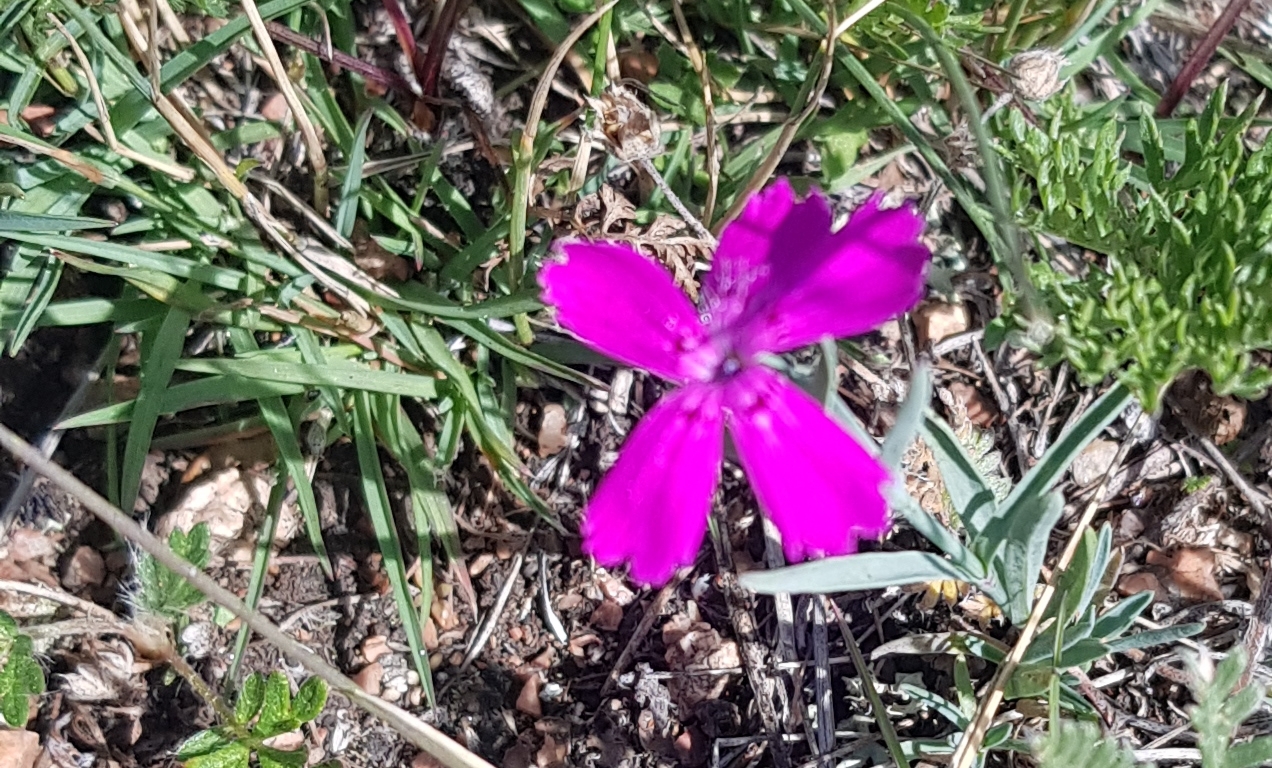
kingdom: Plantae
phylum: Tracheophyta
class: Magnoliopsida
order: Caryophyllales
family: Caryophyllaceae
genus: Dianthus
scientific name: Dianthus chinensis
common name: Rainbow pink
